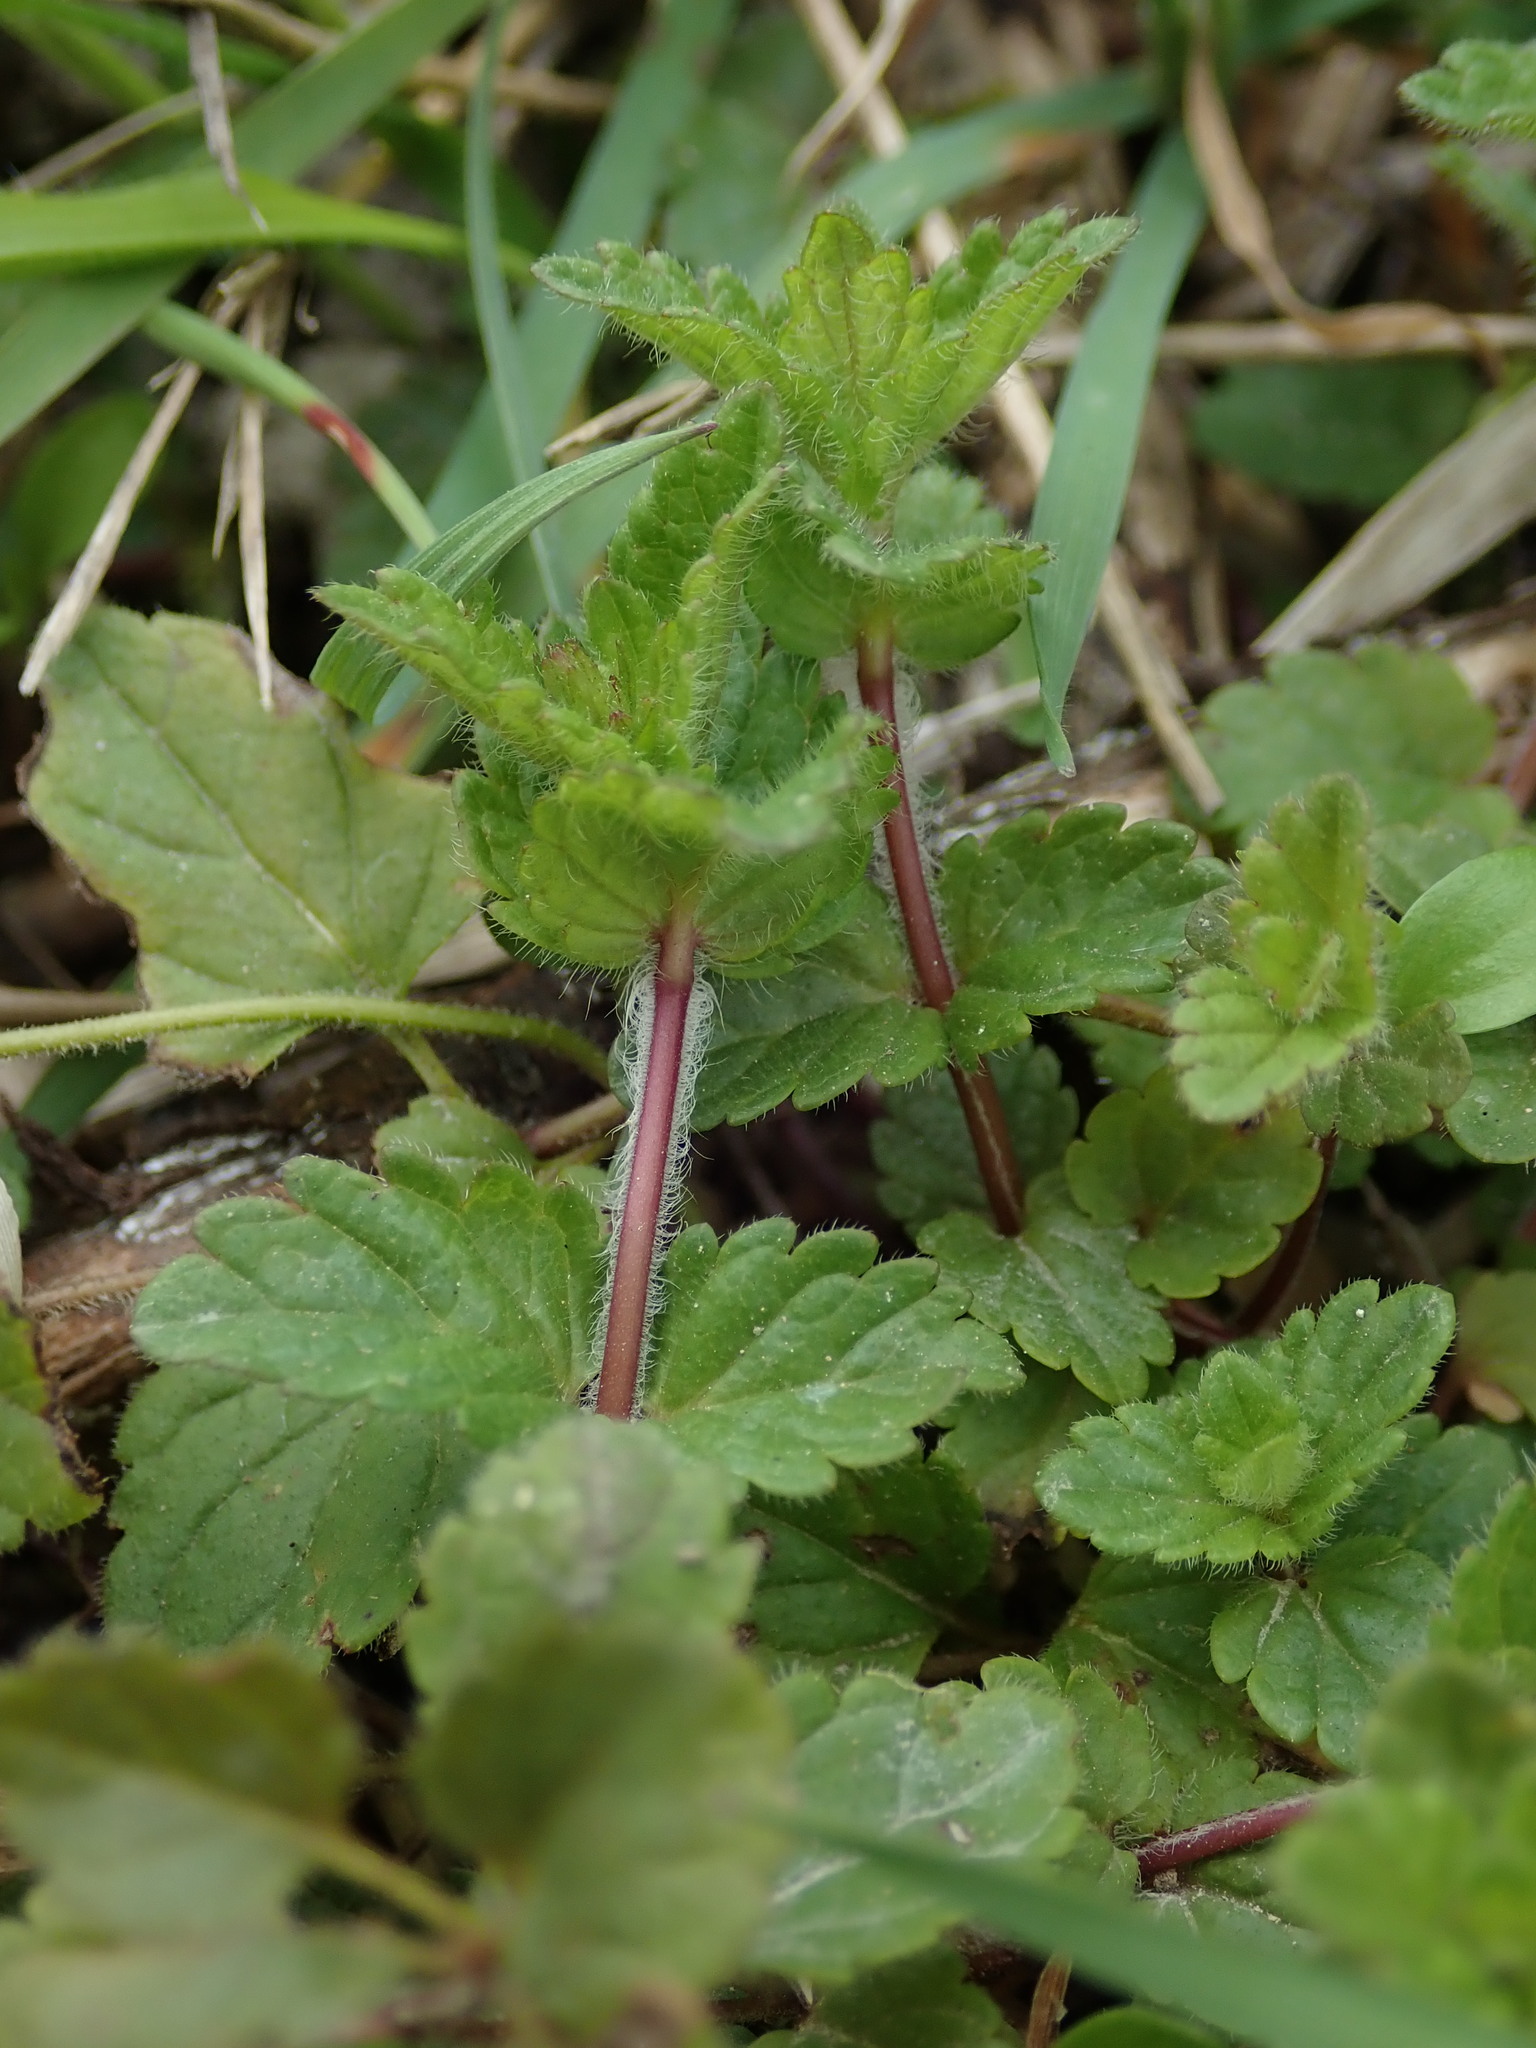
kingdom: Plantae
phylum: Tracheophyta
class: Magnoliopsida
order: Lamiales
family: Plantaginaceae
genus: Veronica
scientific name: Veronica chamaedrys
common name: Germander speedwell
